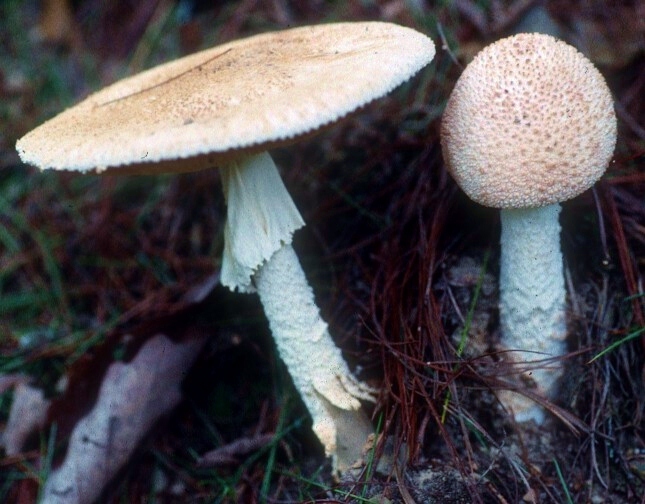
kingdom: Fungi
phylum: Basidiomycota
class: Agaricomycetes
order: Agaricales
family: Amanitaceae
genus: Amanita
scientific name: Amanita daucipes
